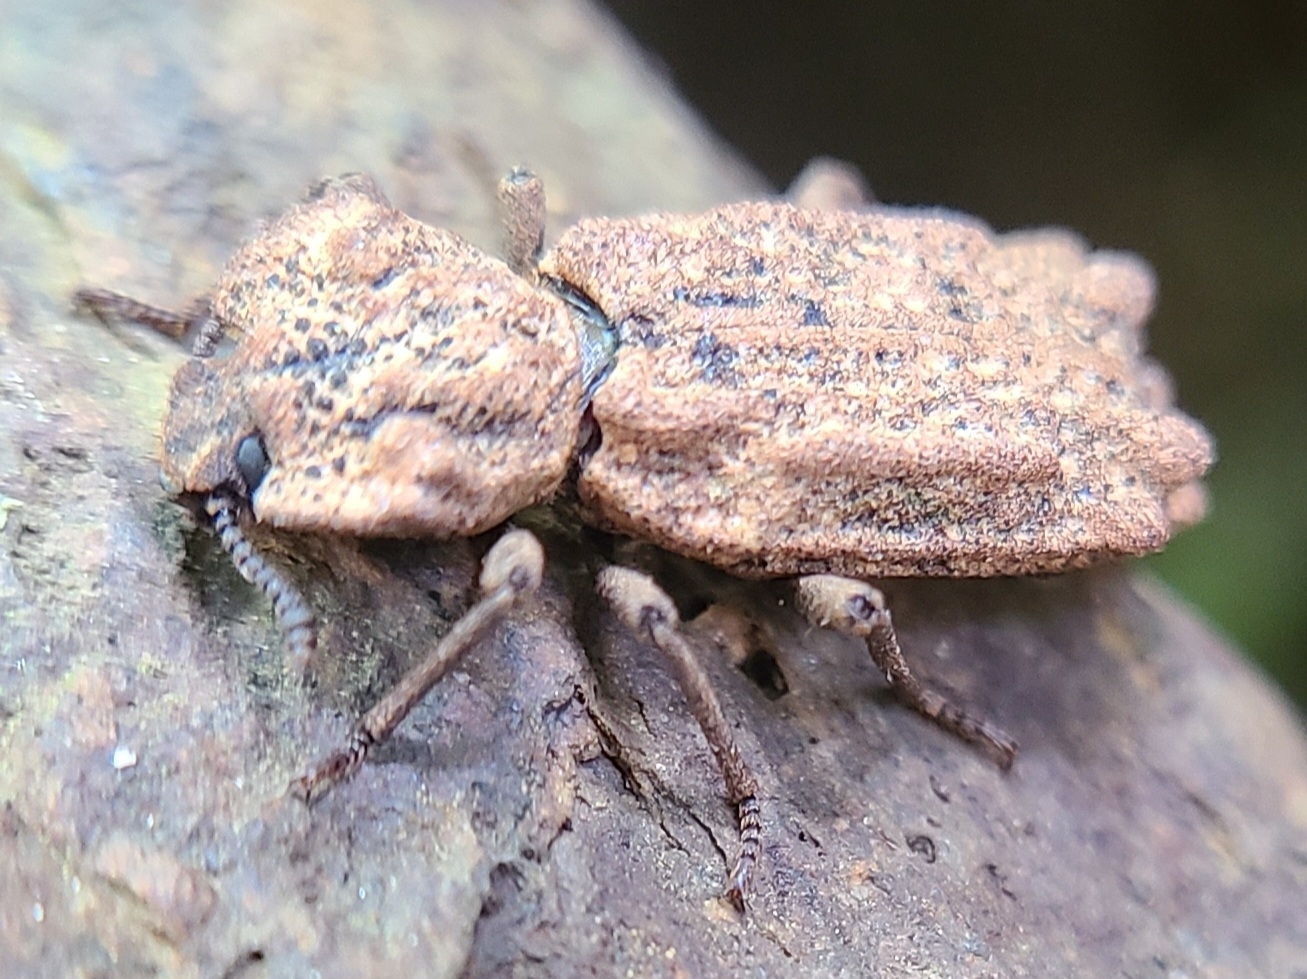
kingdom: Animalia
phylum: Arthropoda
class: Insecta
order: Coleoptera
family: Zopheridae
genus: Phellopsis
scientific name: Phellopsis obcordata
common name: Eastern ironclad beetle
